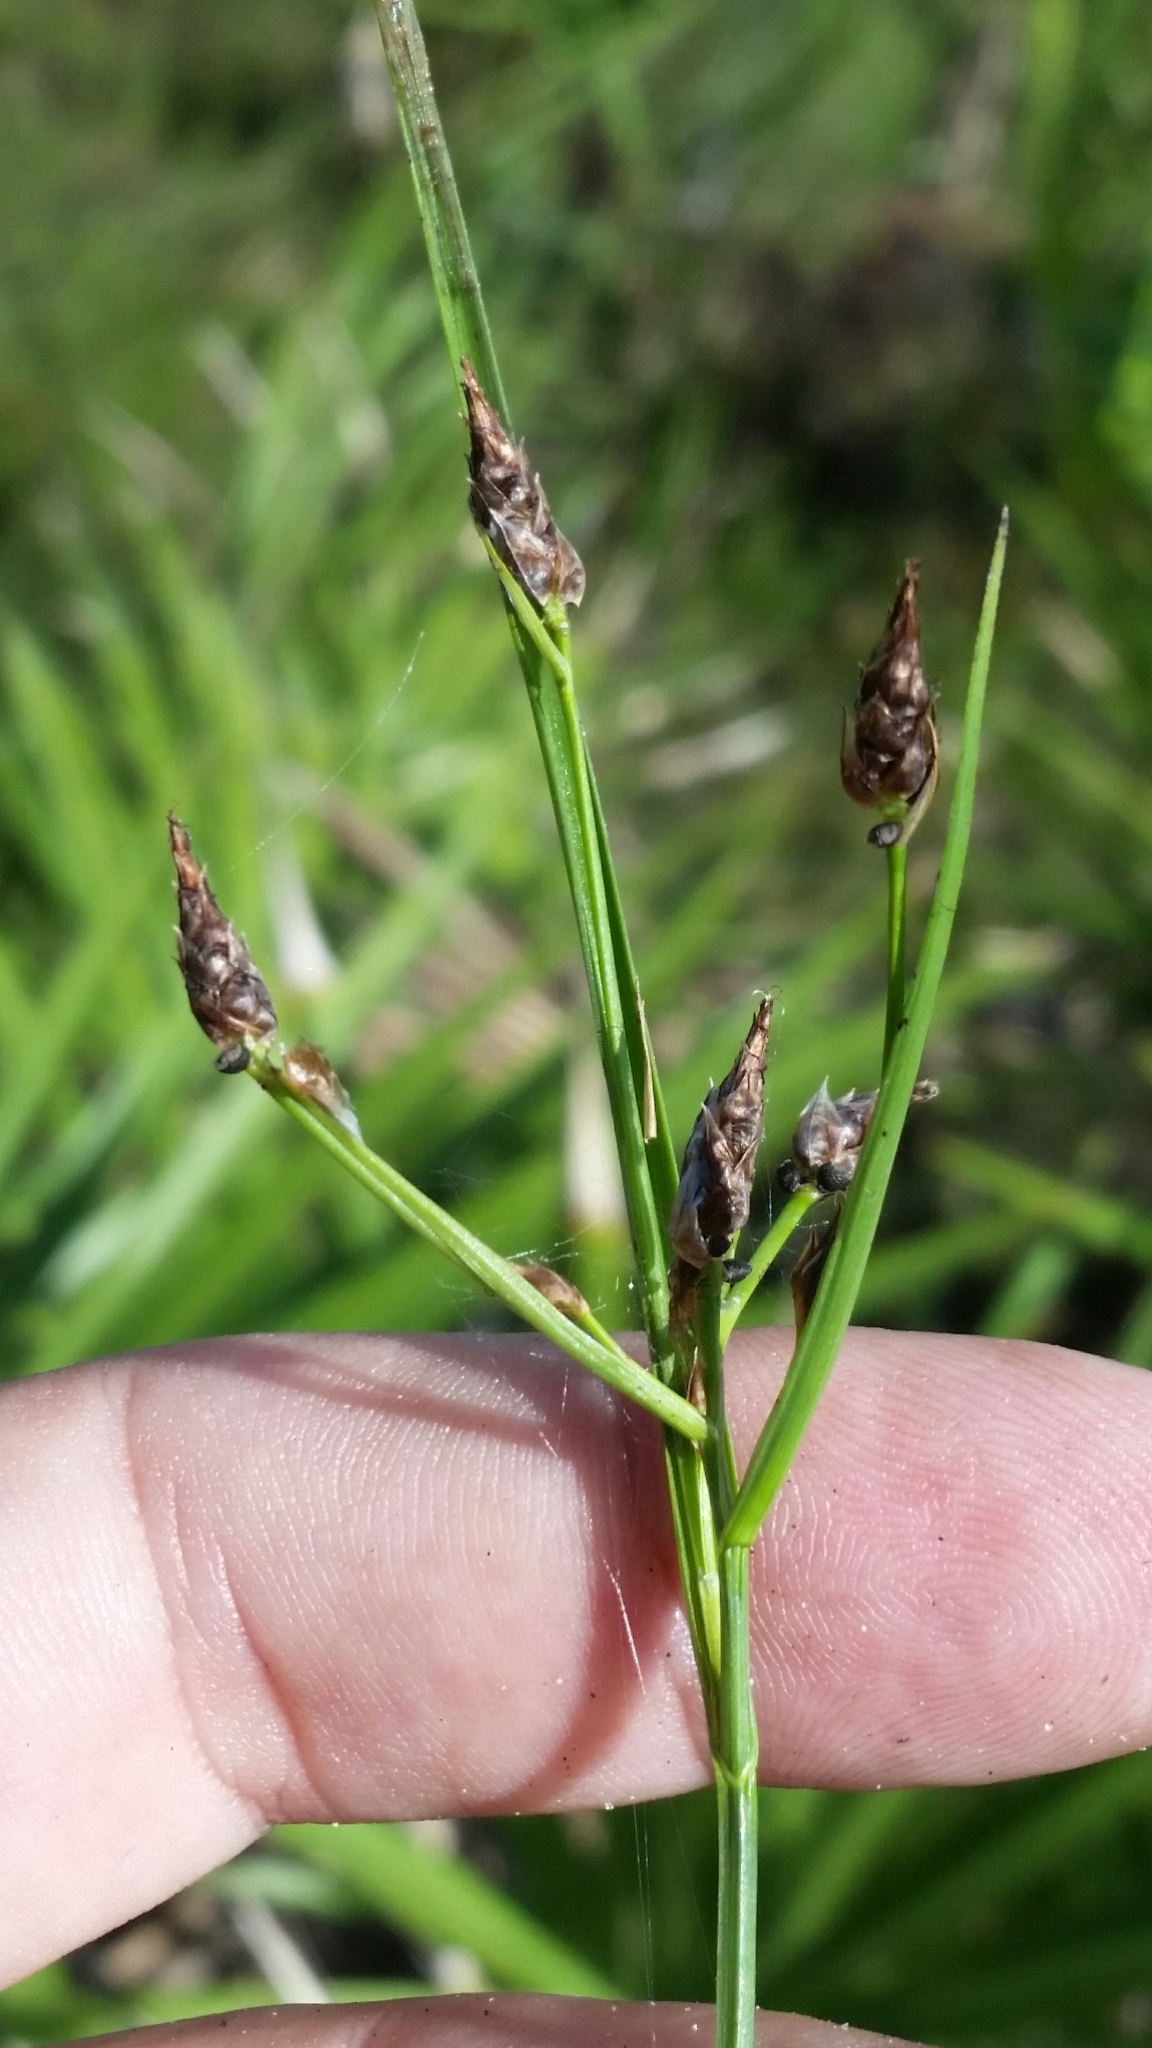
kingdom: Plantae
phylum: Tracheophyta
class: Liliopsida
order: Poales
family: Cyperaceae
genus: Rhynchospora
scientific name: Rhynchospora eximia
